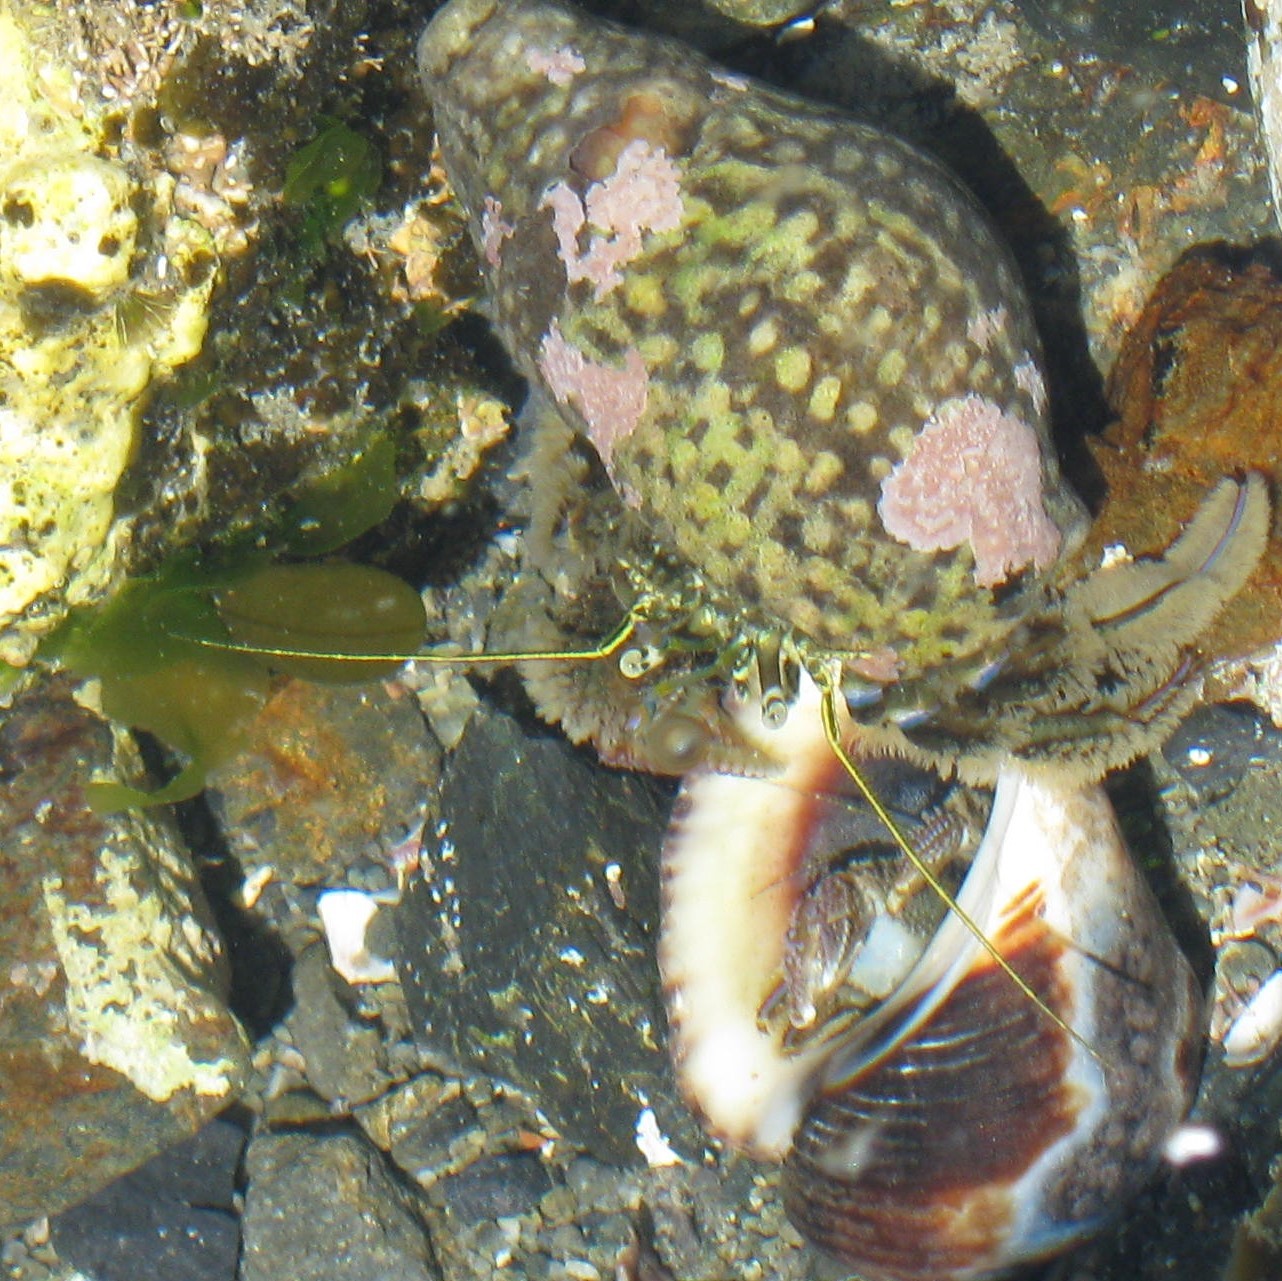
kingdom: Animalia
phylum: Arthropoda
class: Malacostraca
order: Decapoda
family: Paguridae
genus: Pagurus
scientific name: Pagurus novizealandiae
